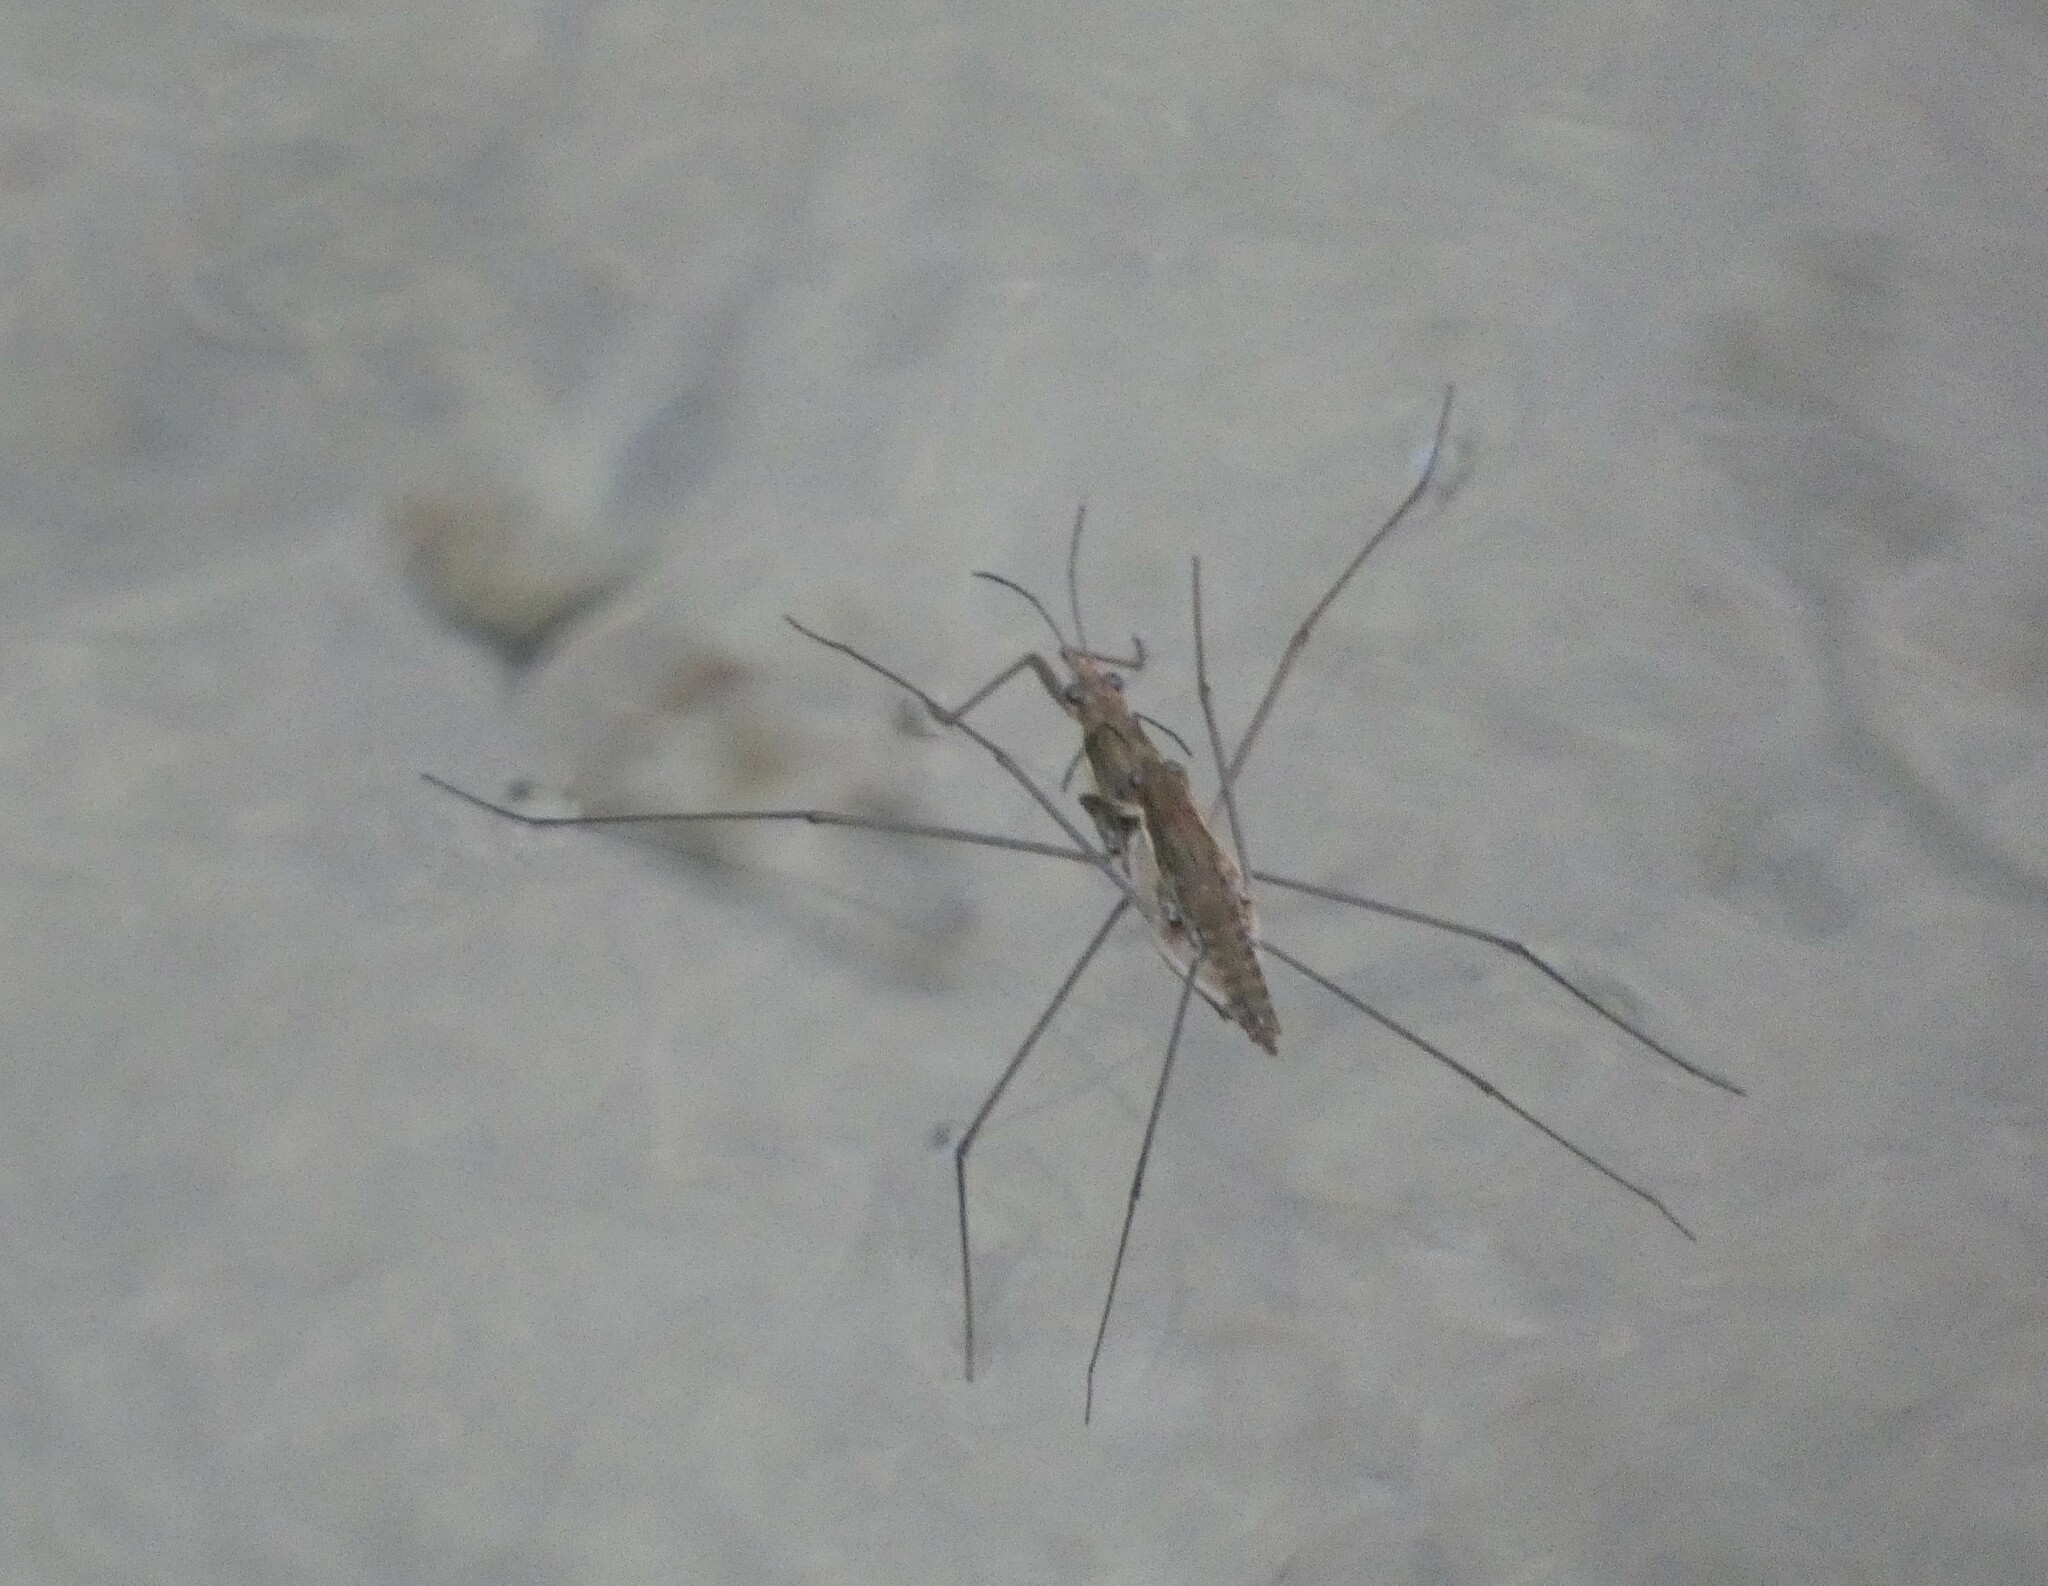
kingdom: Animalia
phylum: Arthropoda
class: Insecta
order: Hemiptera
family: Gerridae
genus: Aquarius
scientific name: Aquarius najas
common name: River skater
